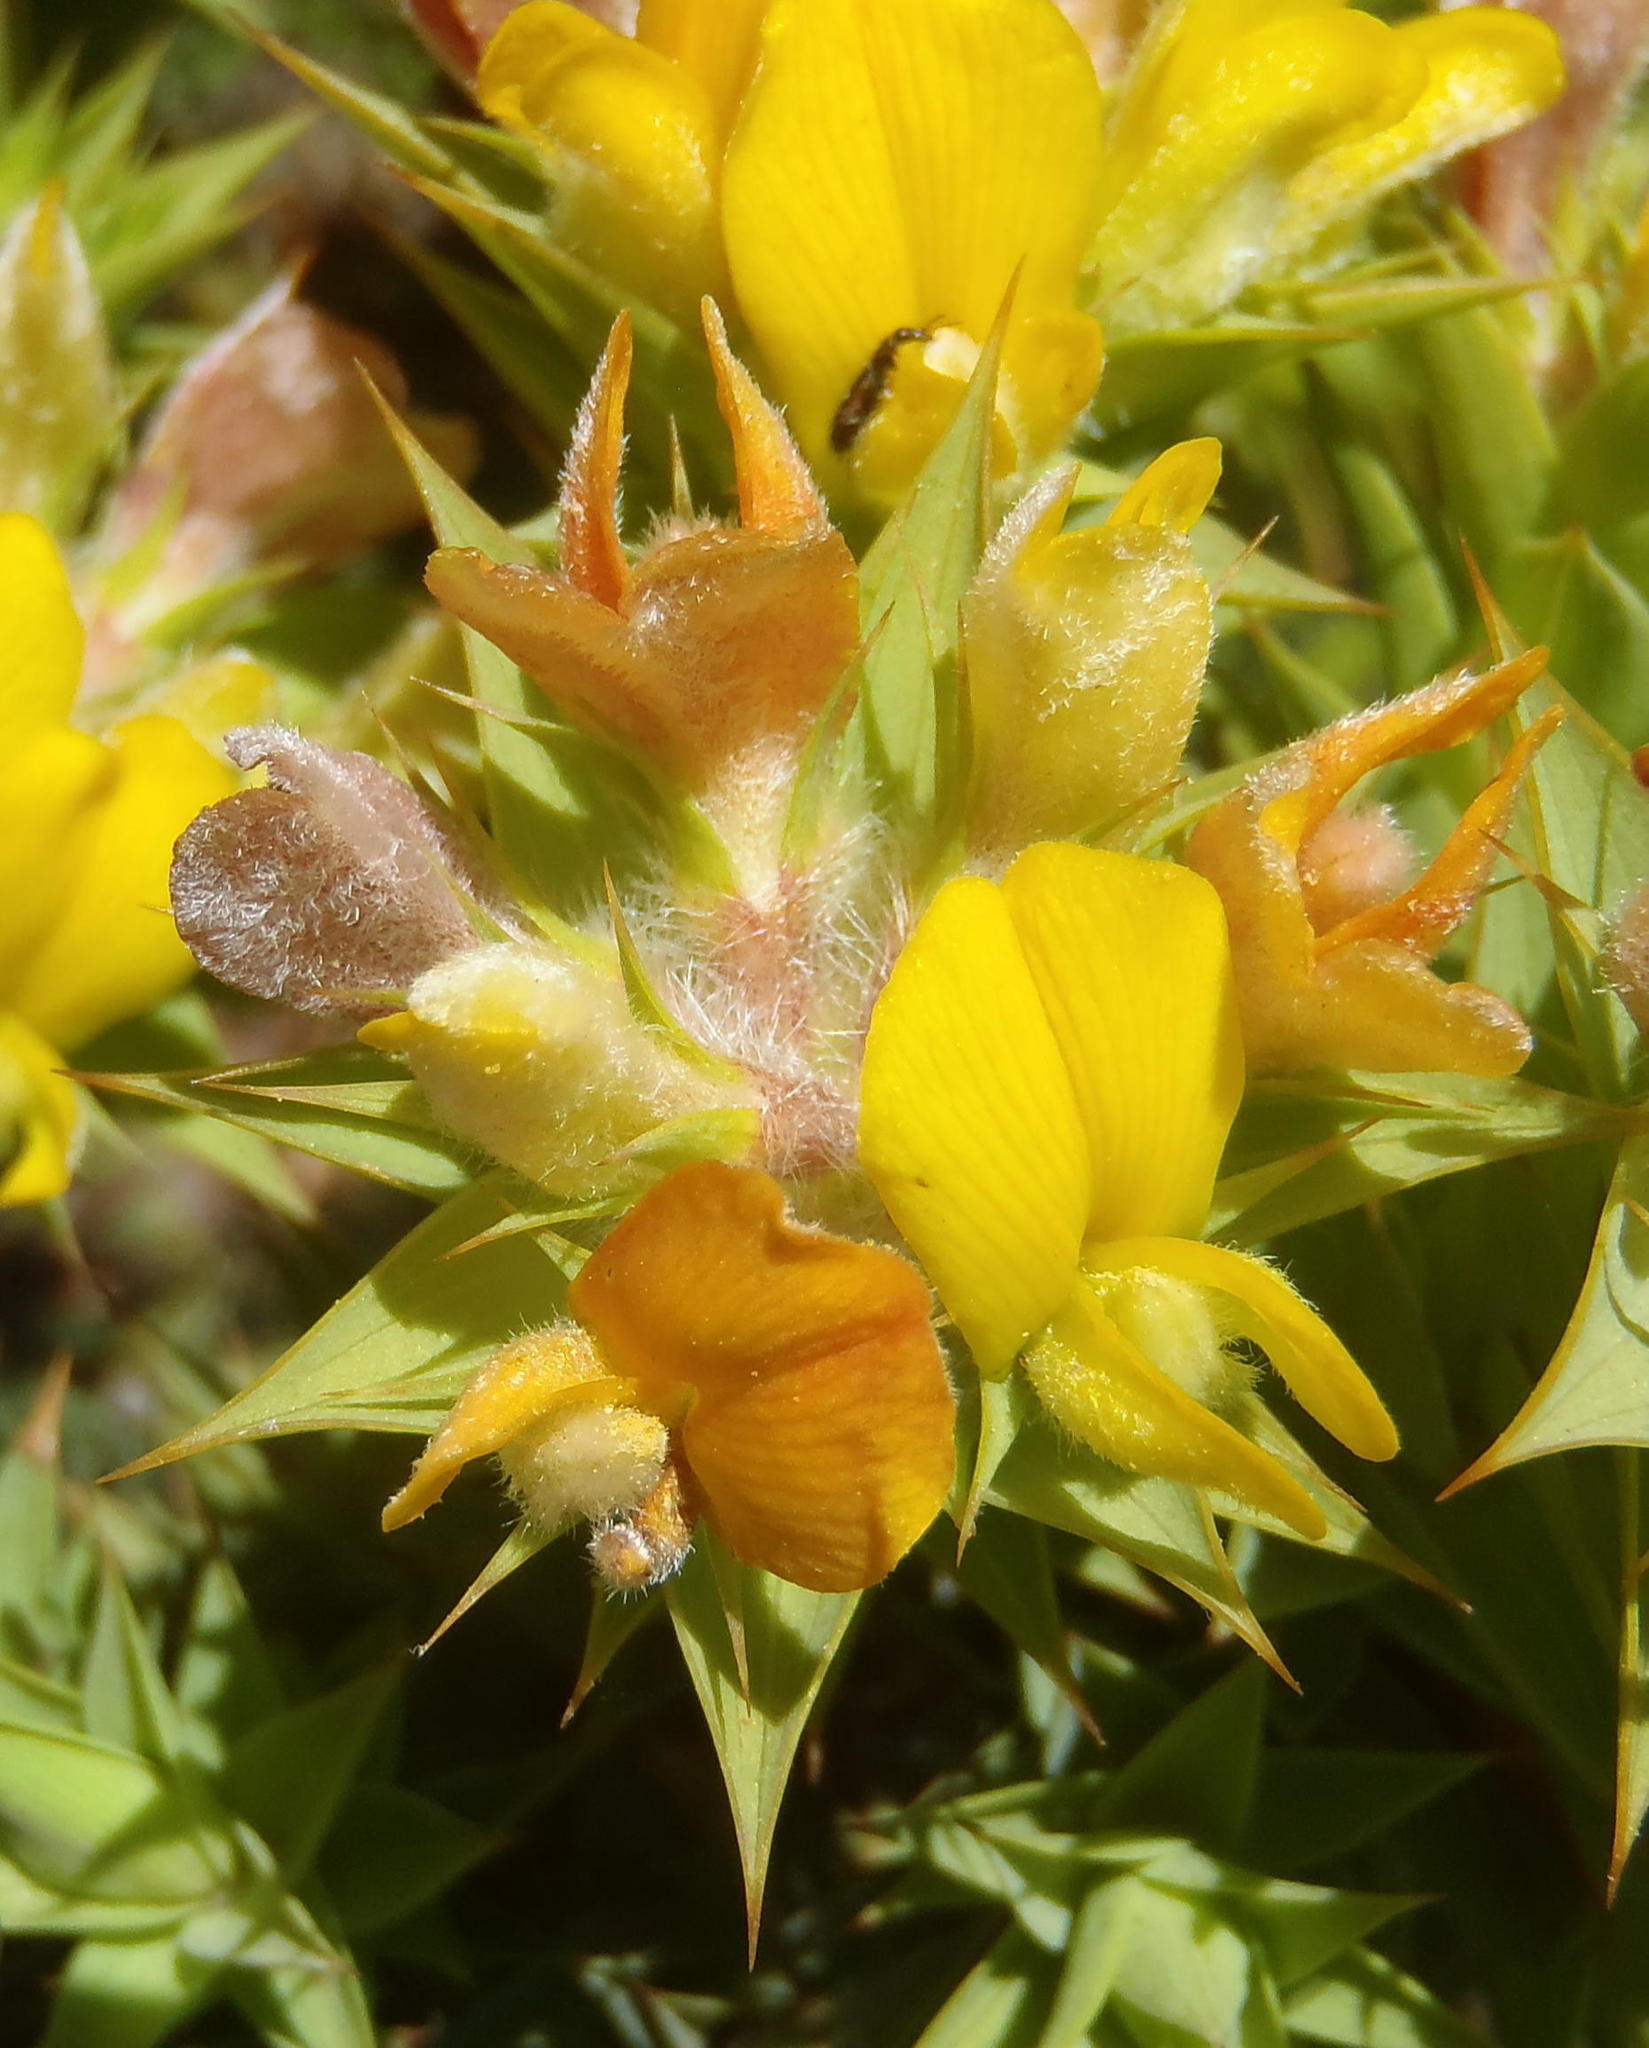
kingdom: Plantae
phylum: Tracheophyta
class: Magnoliopsida
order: Fabales
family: Fabaceae
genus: Aspalathus
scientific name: Aspalathus cordata
